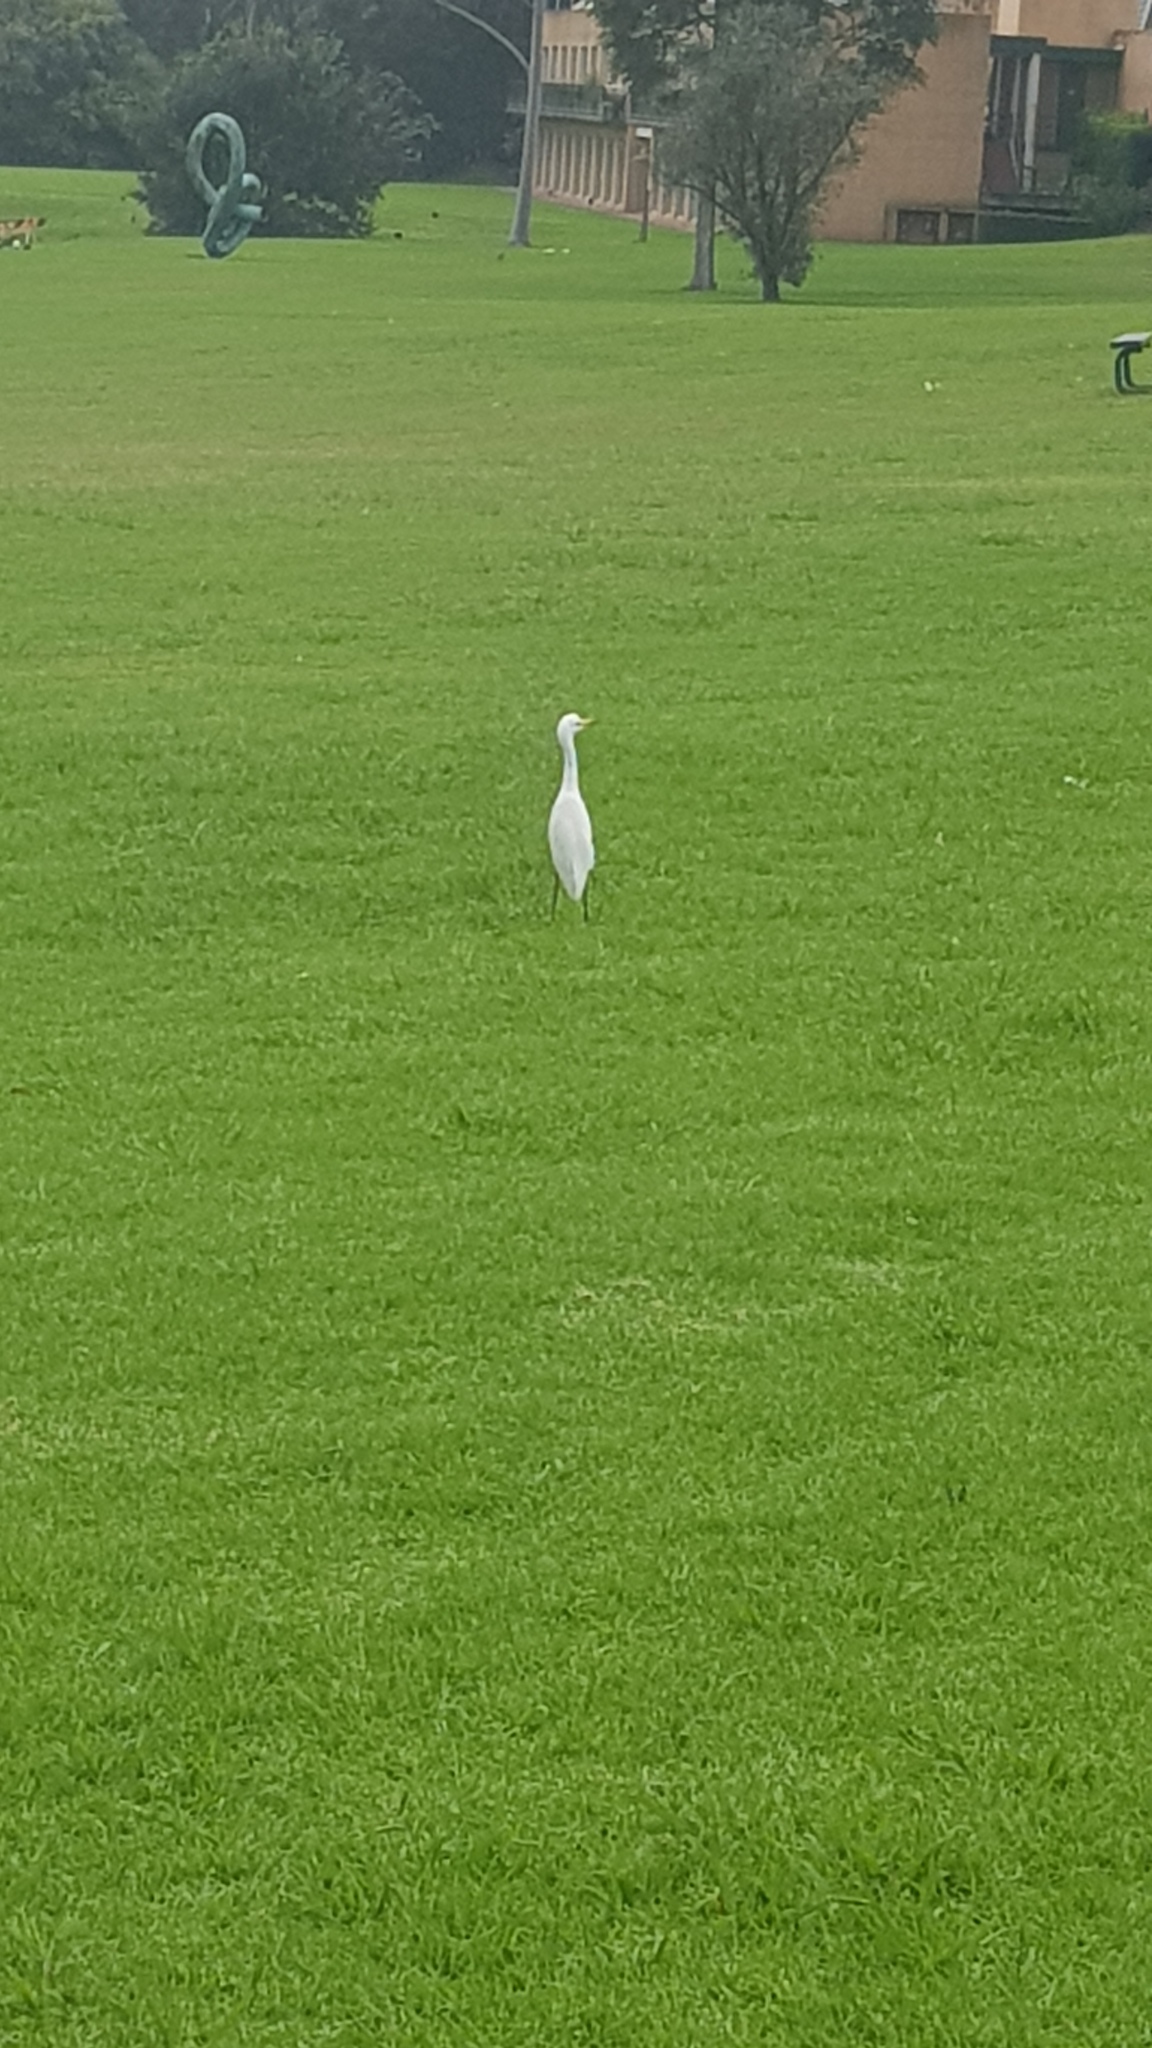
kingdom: Animalia
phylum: Chordata
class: Aves
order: Pelecaniformes
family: Ardeidae
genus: Bubulcus
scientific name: Bubulcus coromandus
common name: Eastern cattle egret
